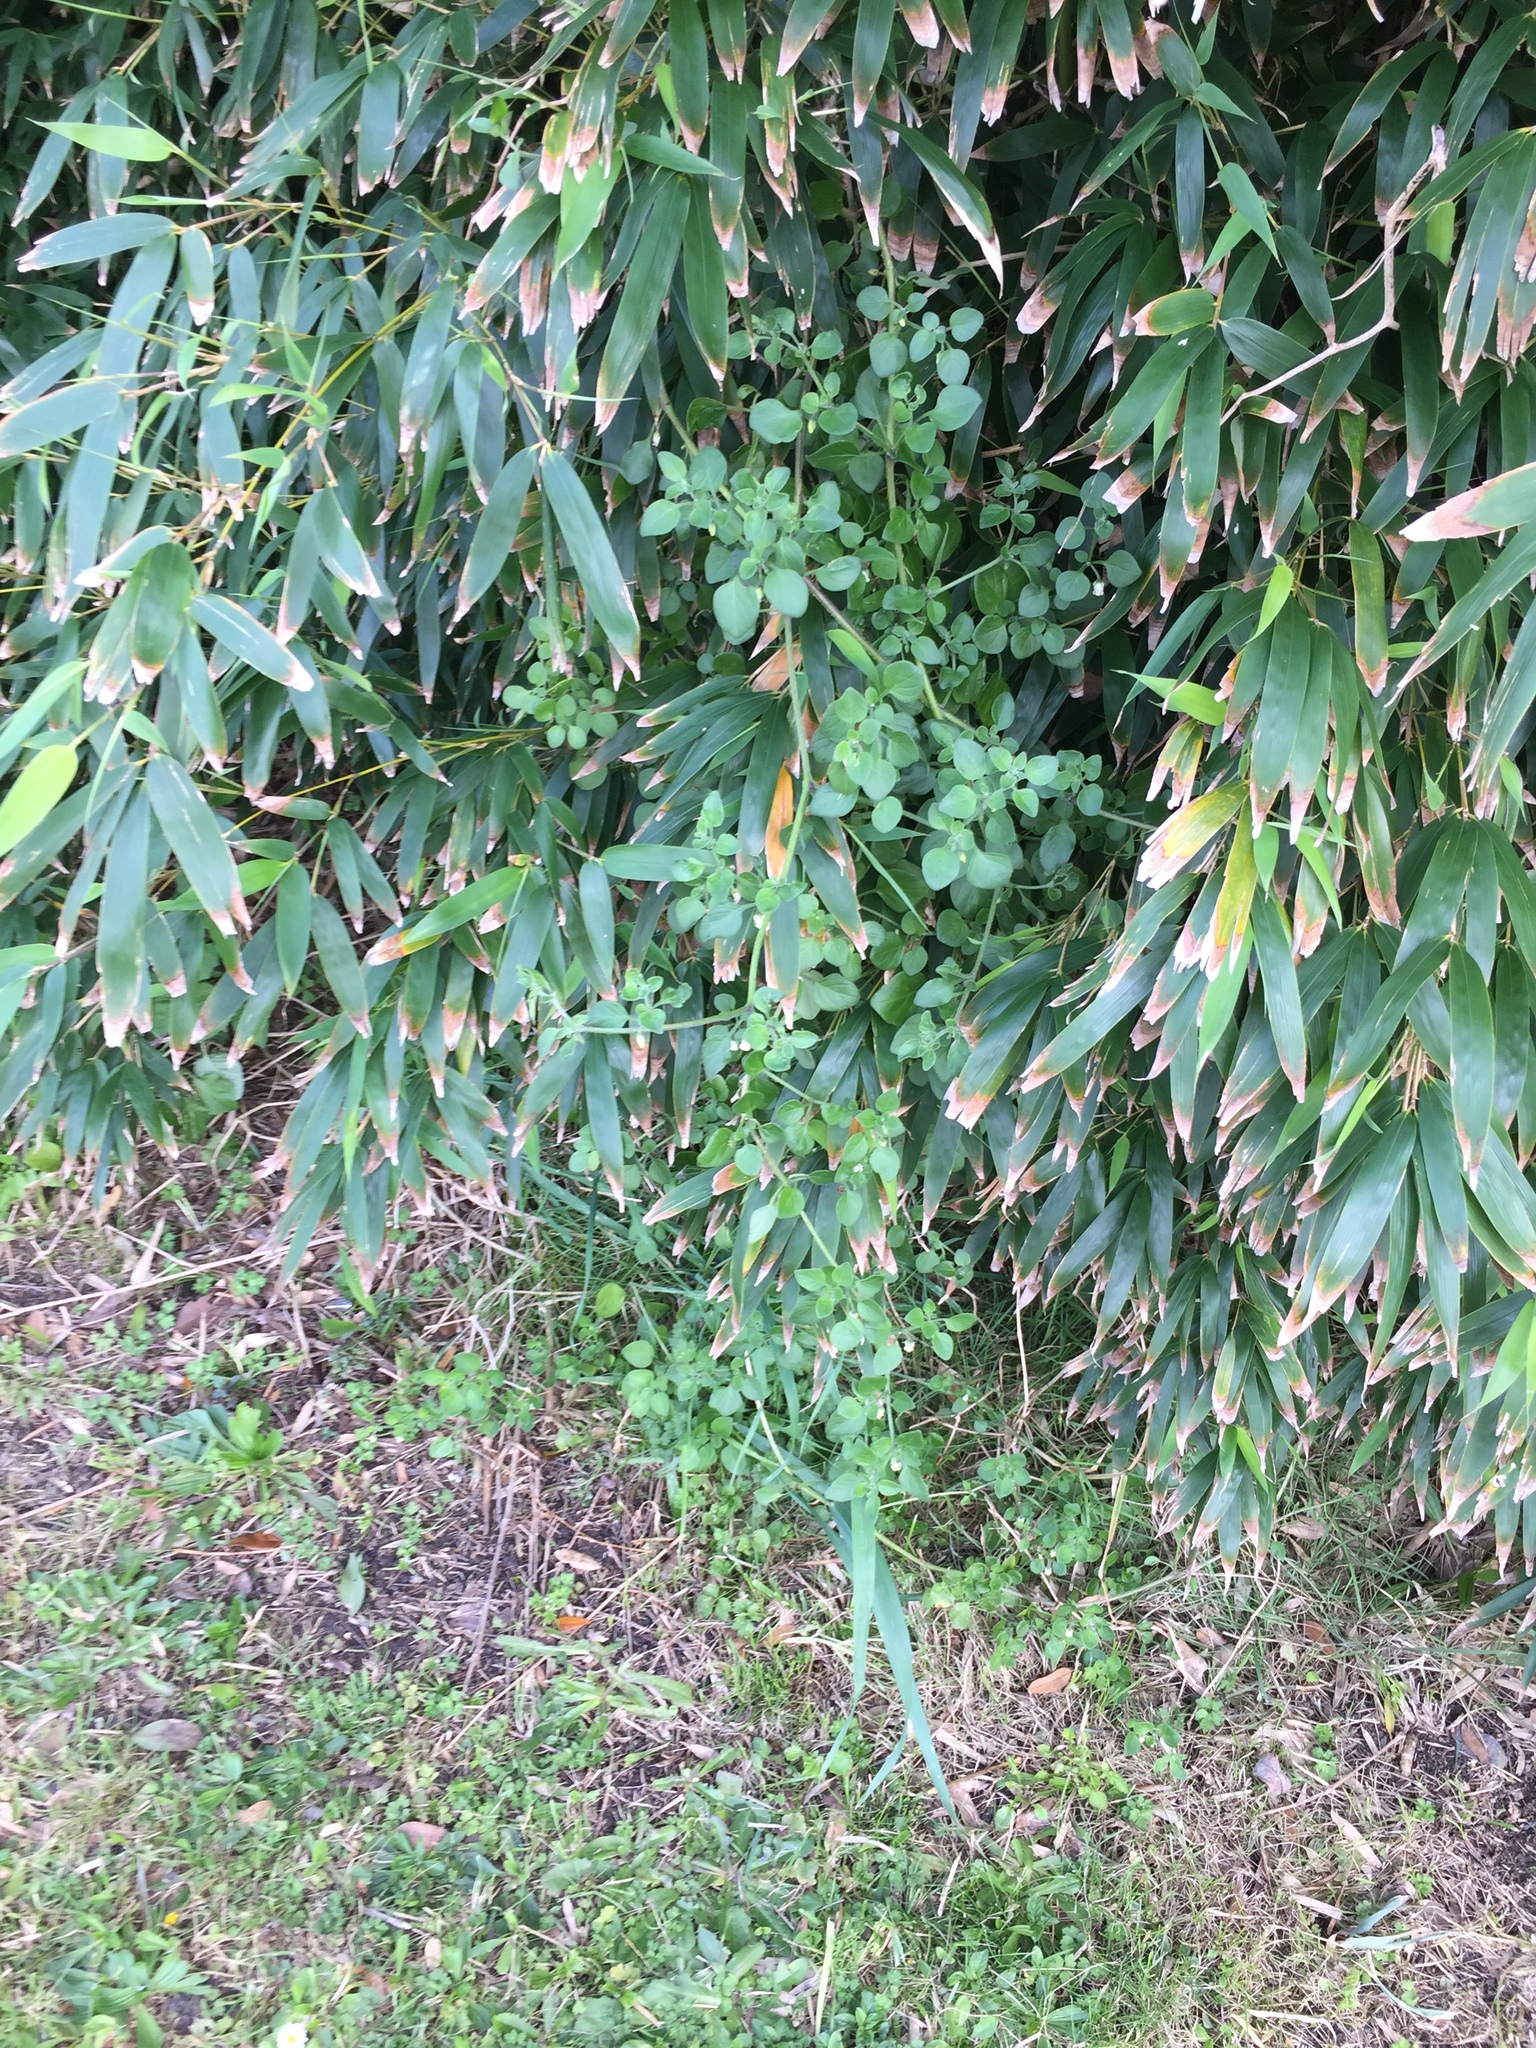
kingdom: Plantae
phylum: Tracheophyta
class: Magnoliopsida
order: Solanales
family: Solanaceae
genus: Salpichroa
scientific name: Salpichroa origanifolia
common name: Lily-of-the-valley-vine
